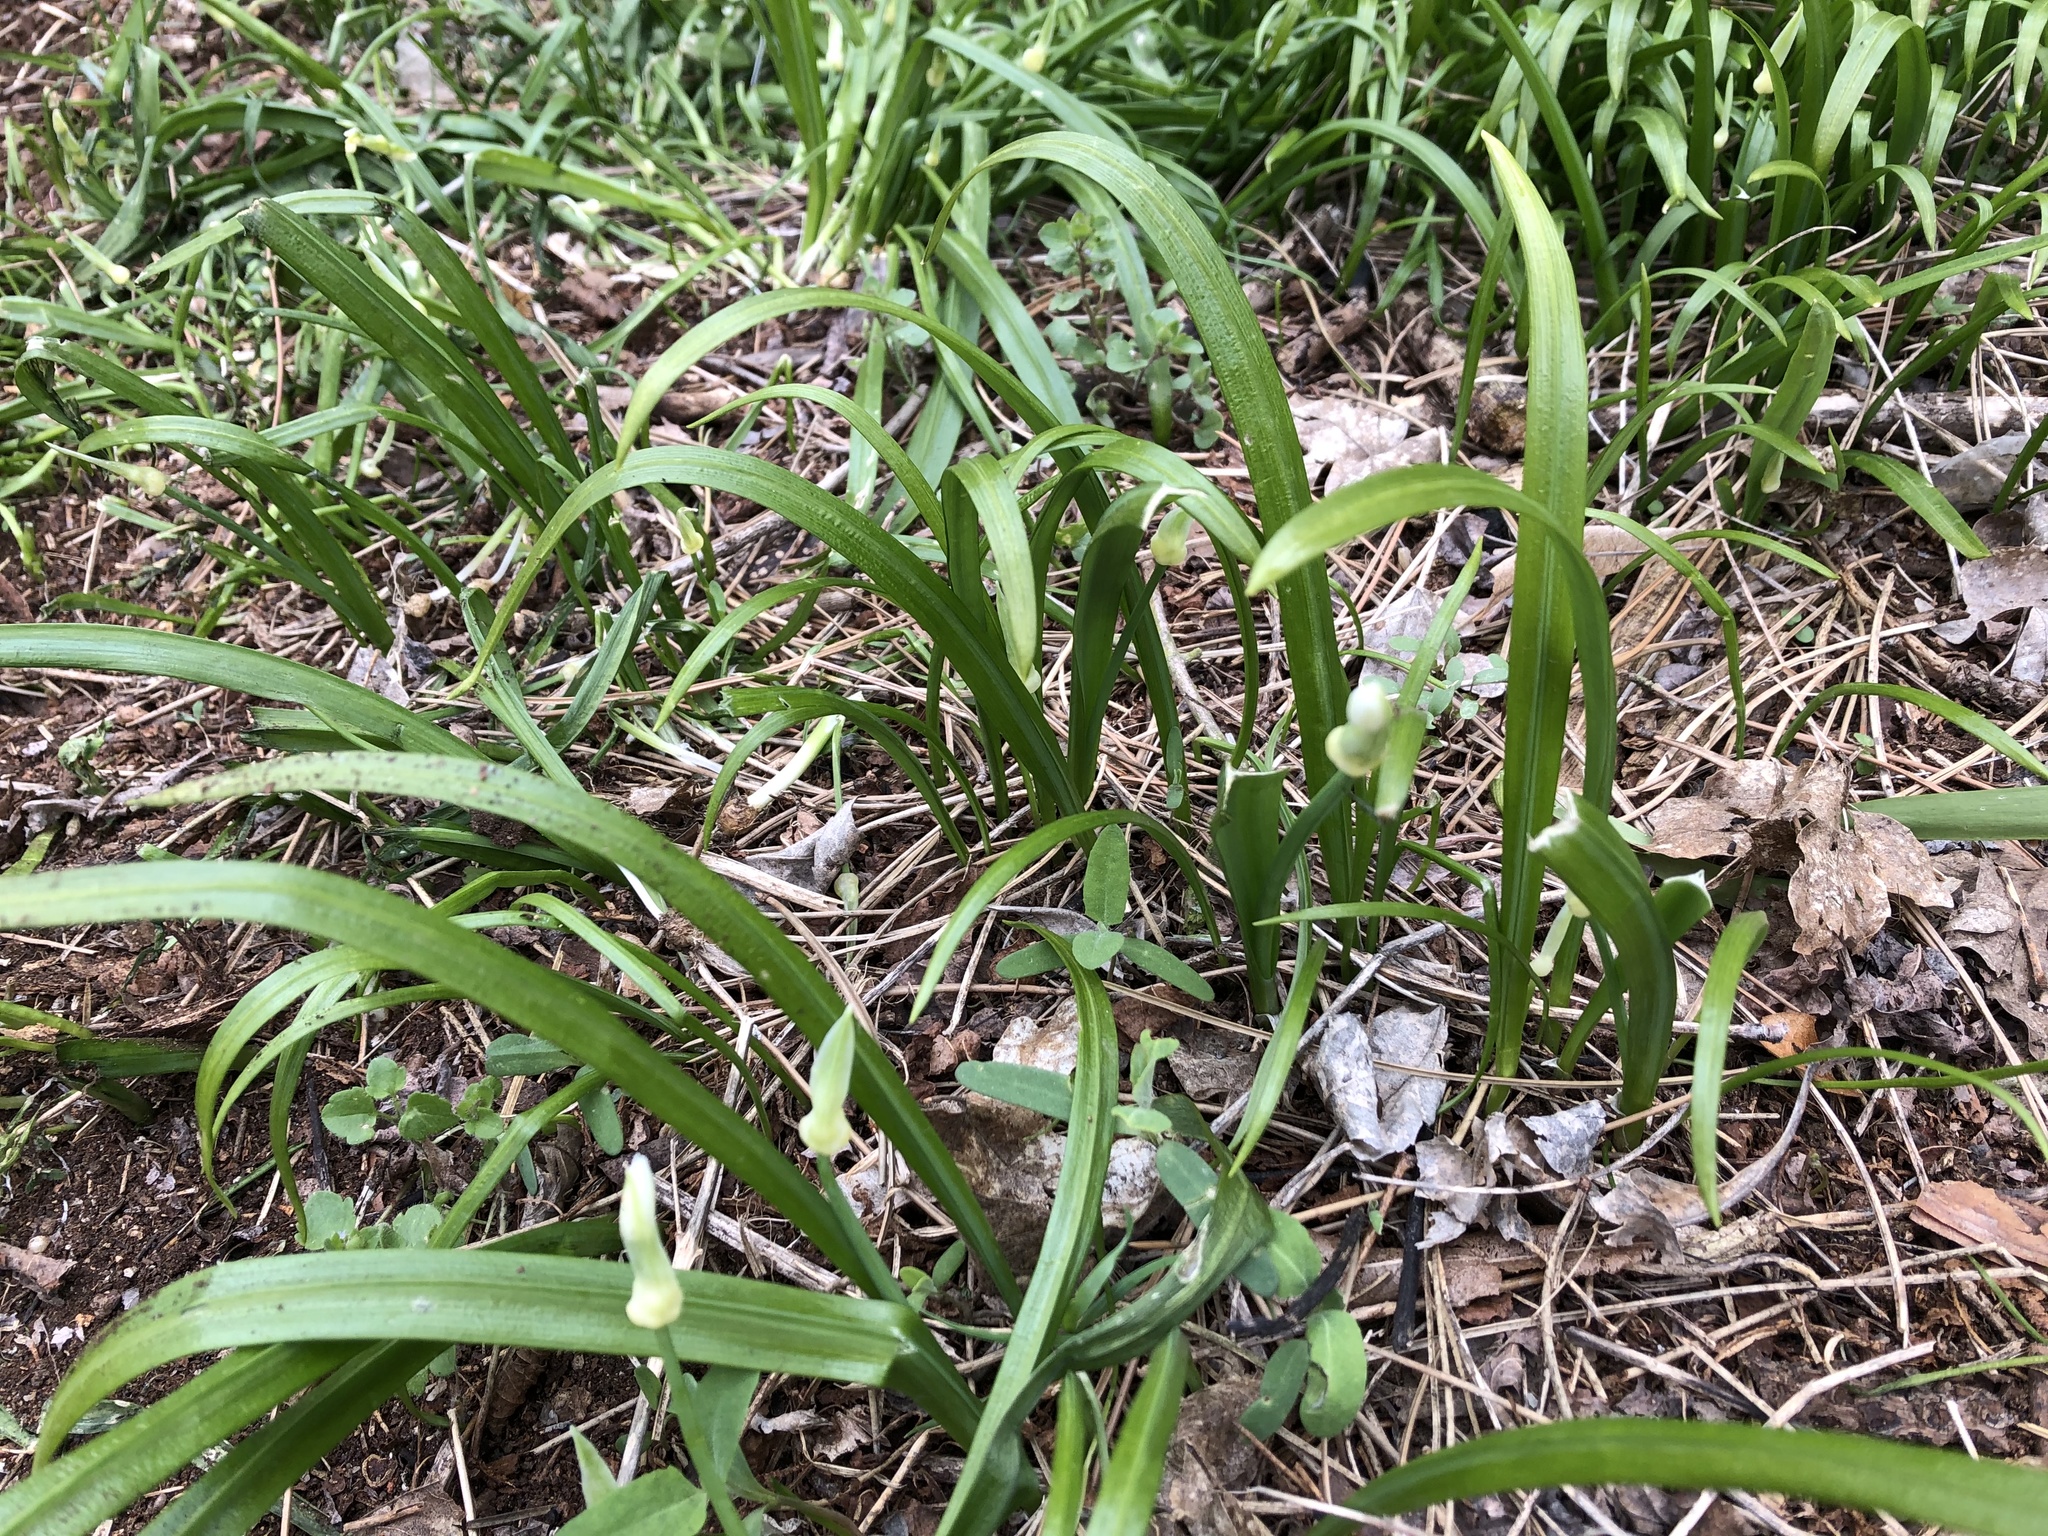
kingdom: Plantae
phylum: Tracheophyta
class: Liliopsida
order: Asparagales
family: Amaryllidaceae
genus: Allium
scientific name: Allium paradoxum
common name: Few-flowered garlic
